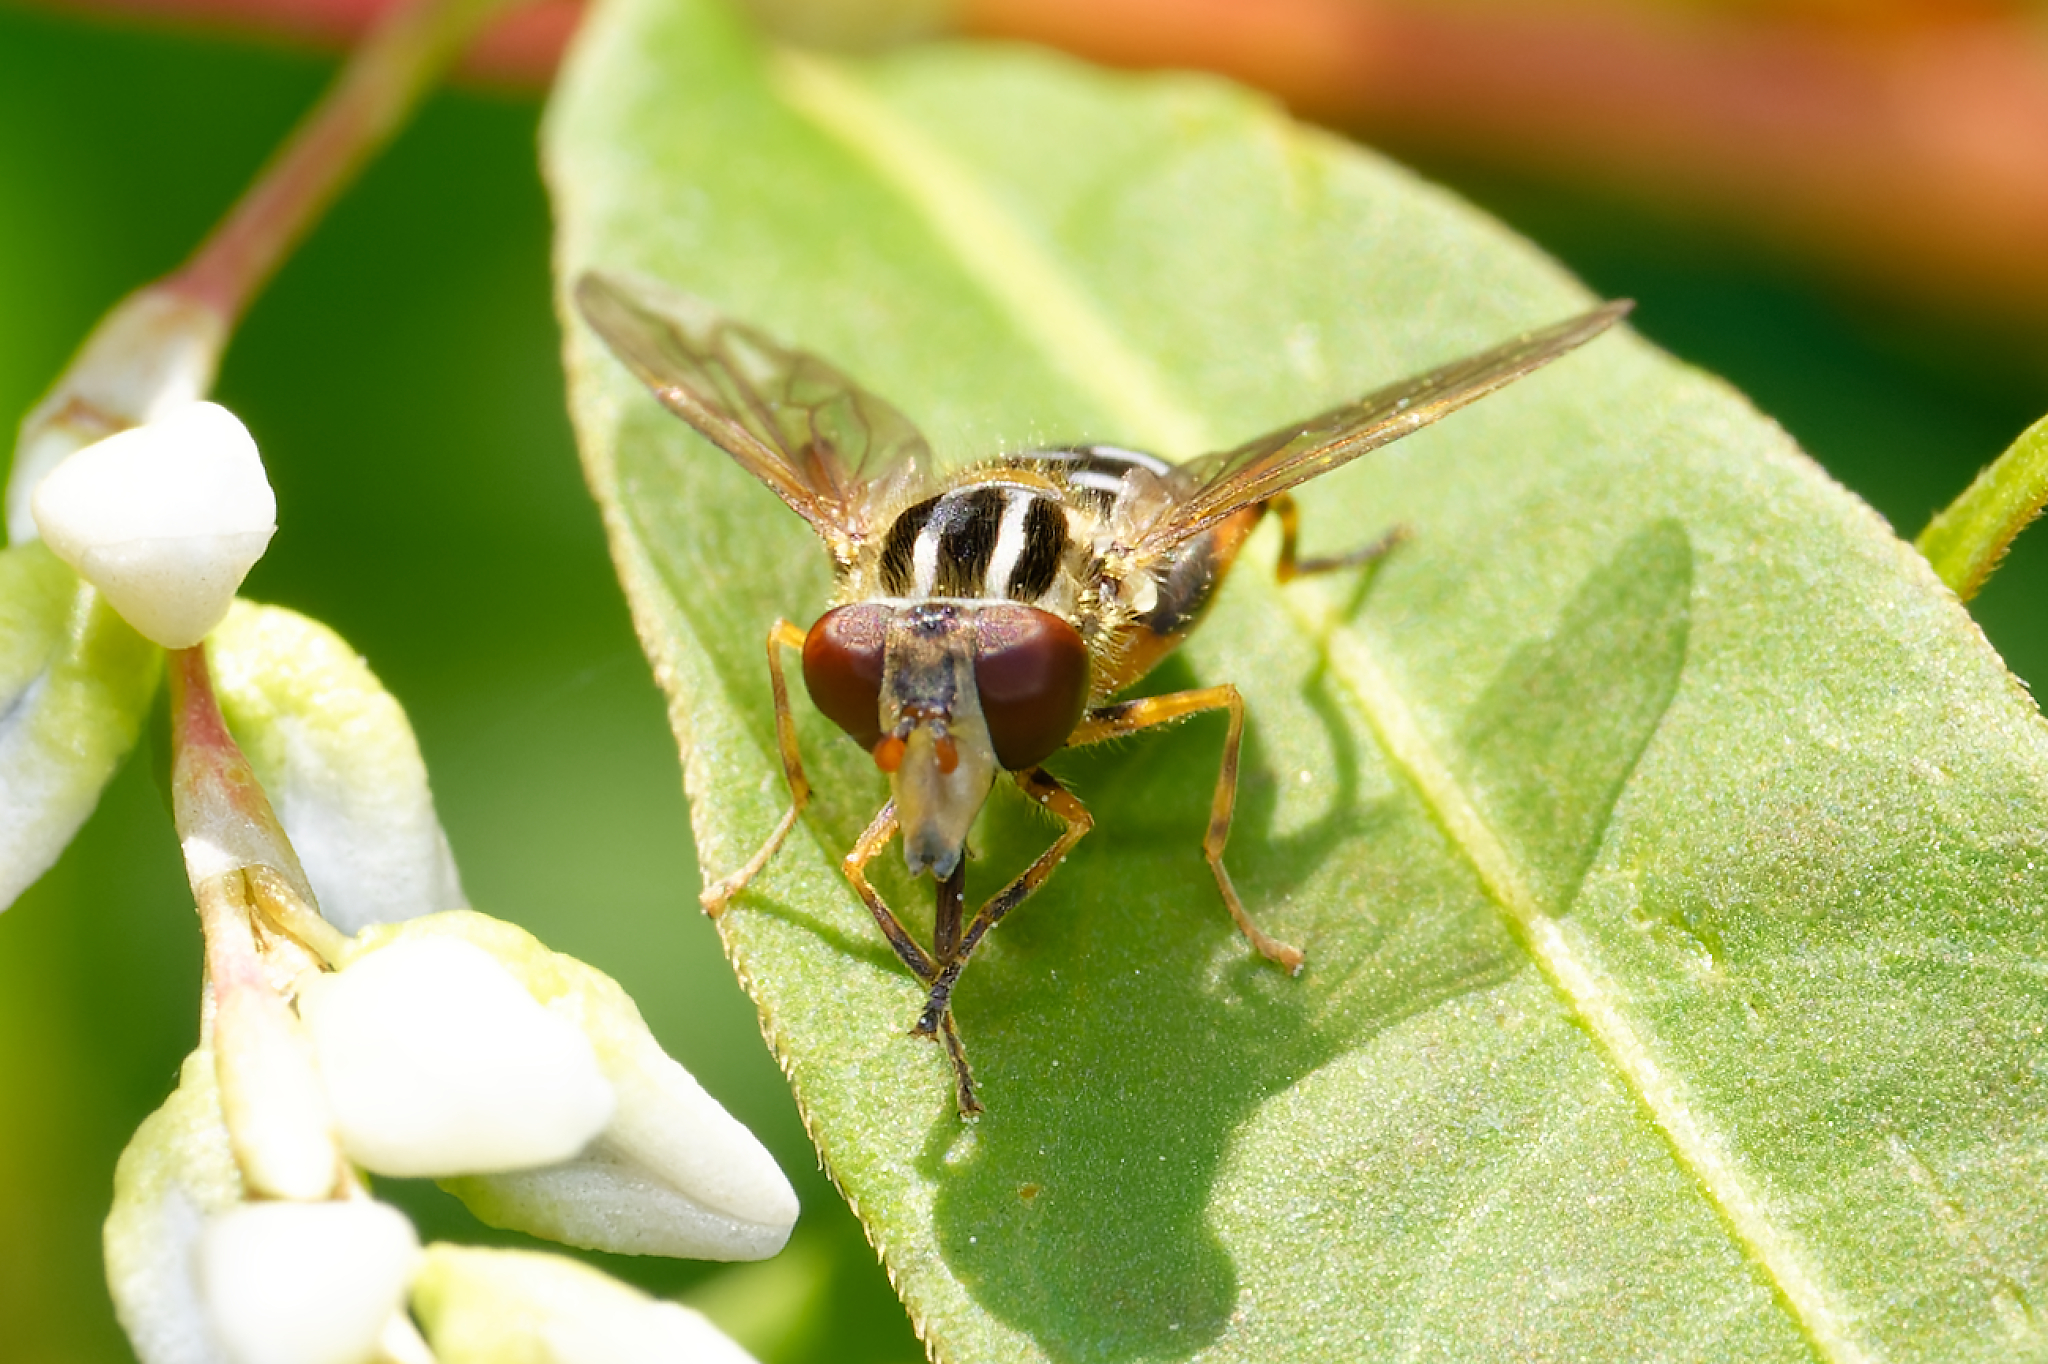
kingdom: Animalia
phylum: Arthropoda
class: Insecta
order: Diptera
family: Syrphidae
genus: Eurimyia
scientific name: Eurimyia stipatus
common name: Long-nosed swamp fly
